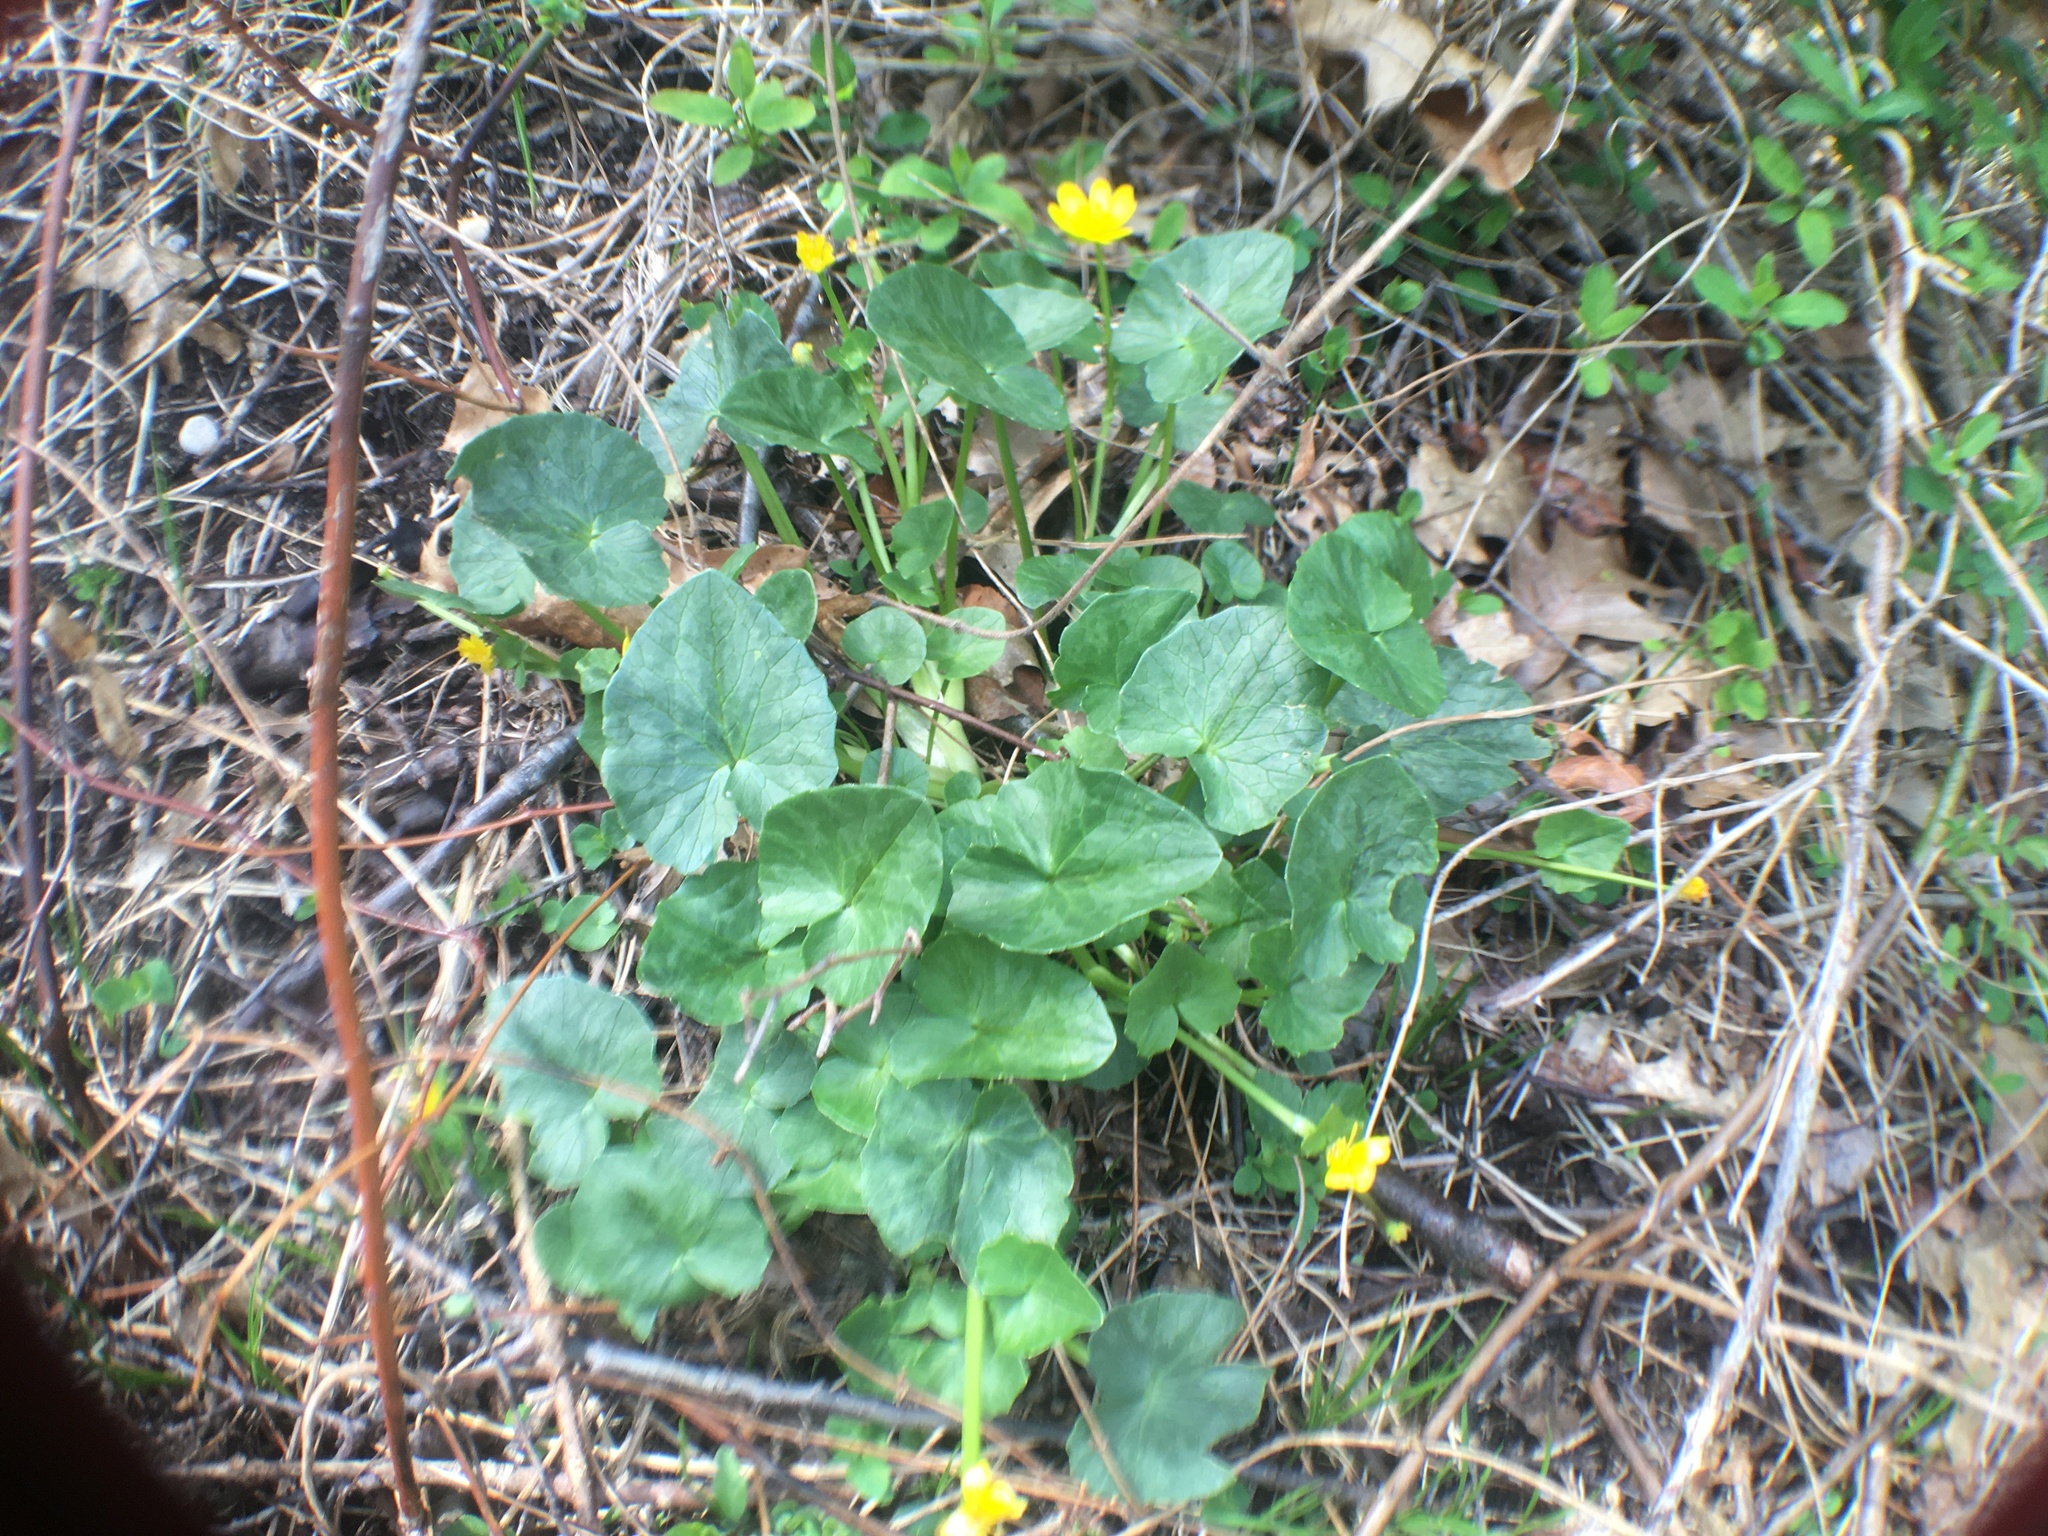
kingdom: Plantae
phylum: Tracheophyta
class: Magnoliopsida
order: Ranunculales
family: Ranunculaceae
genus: Ficaria
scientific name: Ficaria verna
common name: Lesser celandine
